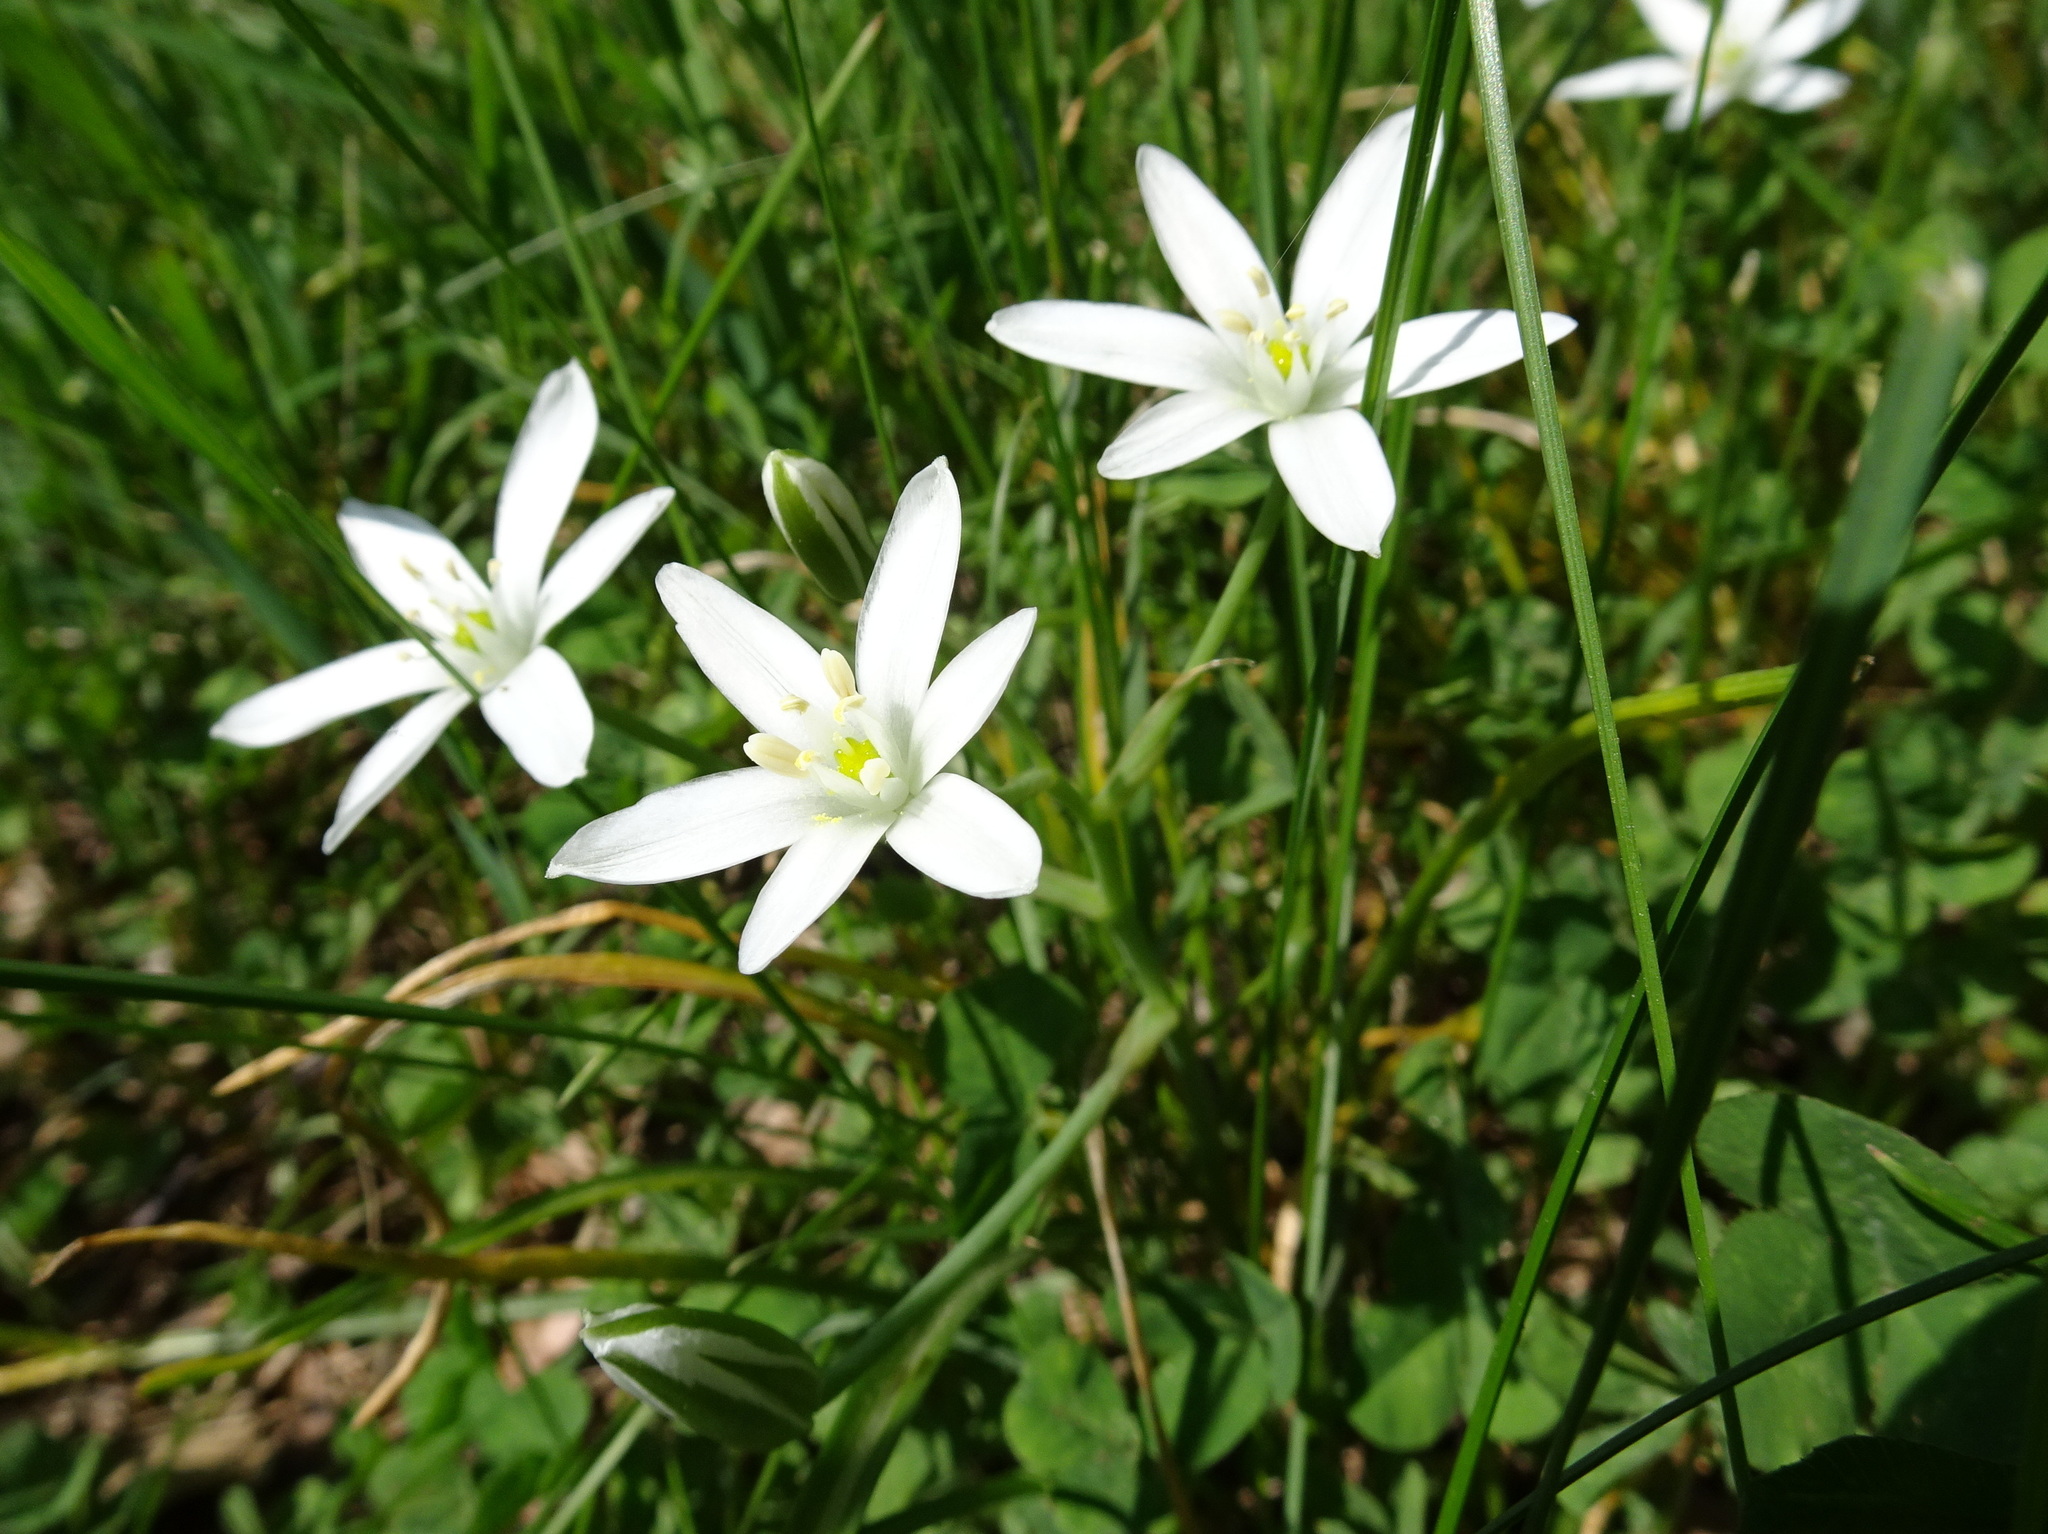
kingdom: Plantae
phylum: Tracheophyta
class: Liliopsida
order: Asparagales
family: Asparagaceae
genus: Ornithogalum
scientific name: Ornithogalum umbellatum
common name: Garden star-of-bethlehem
